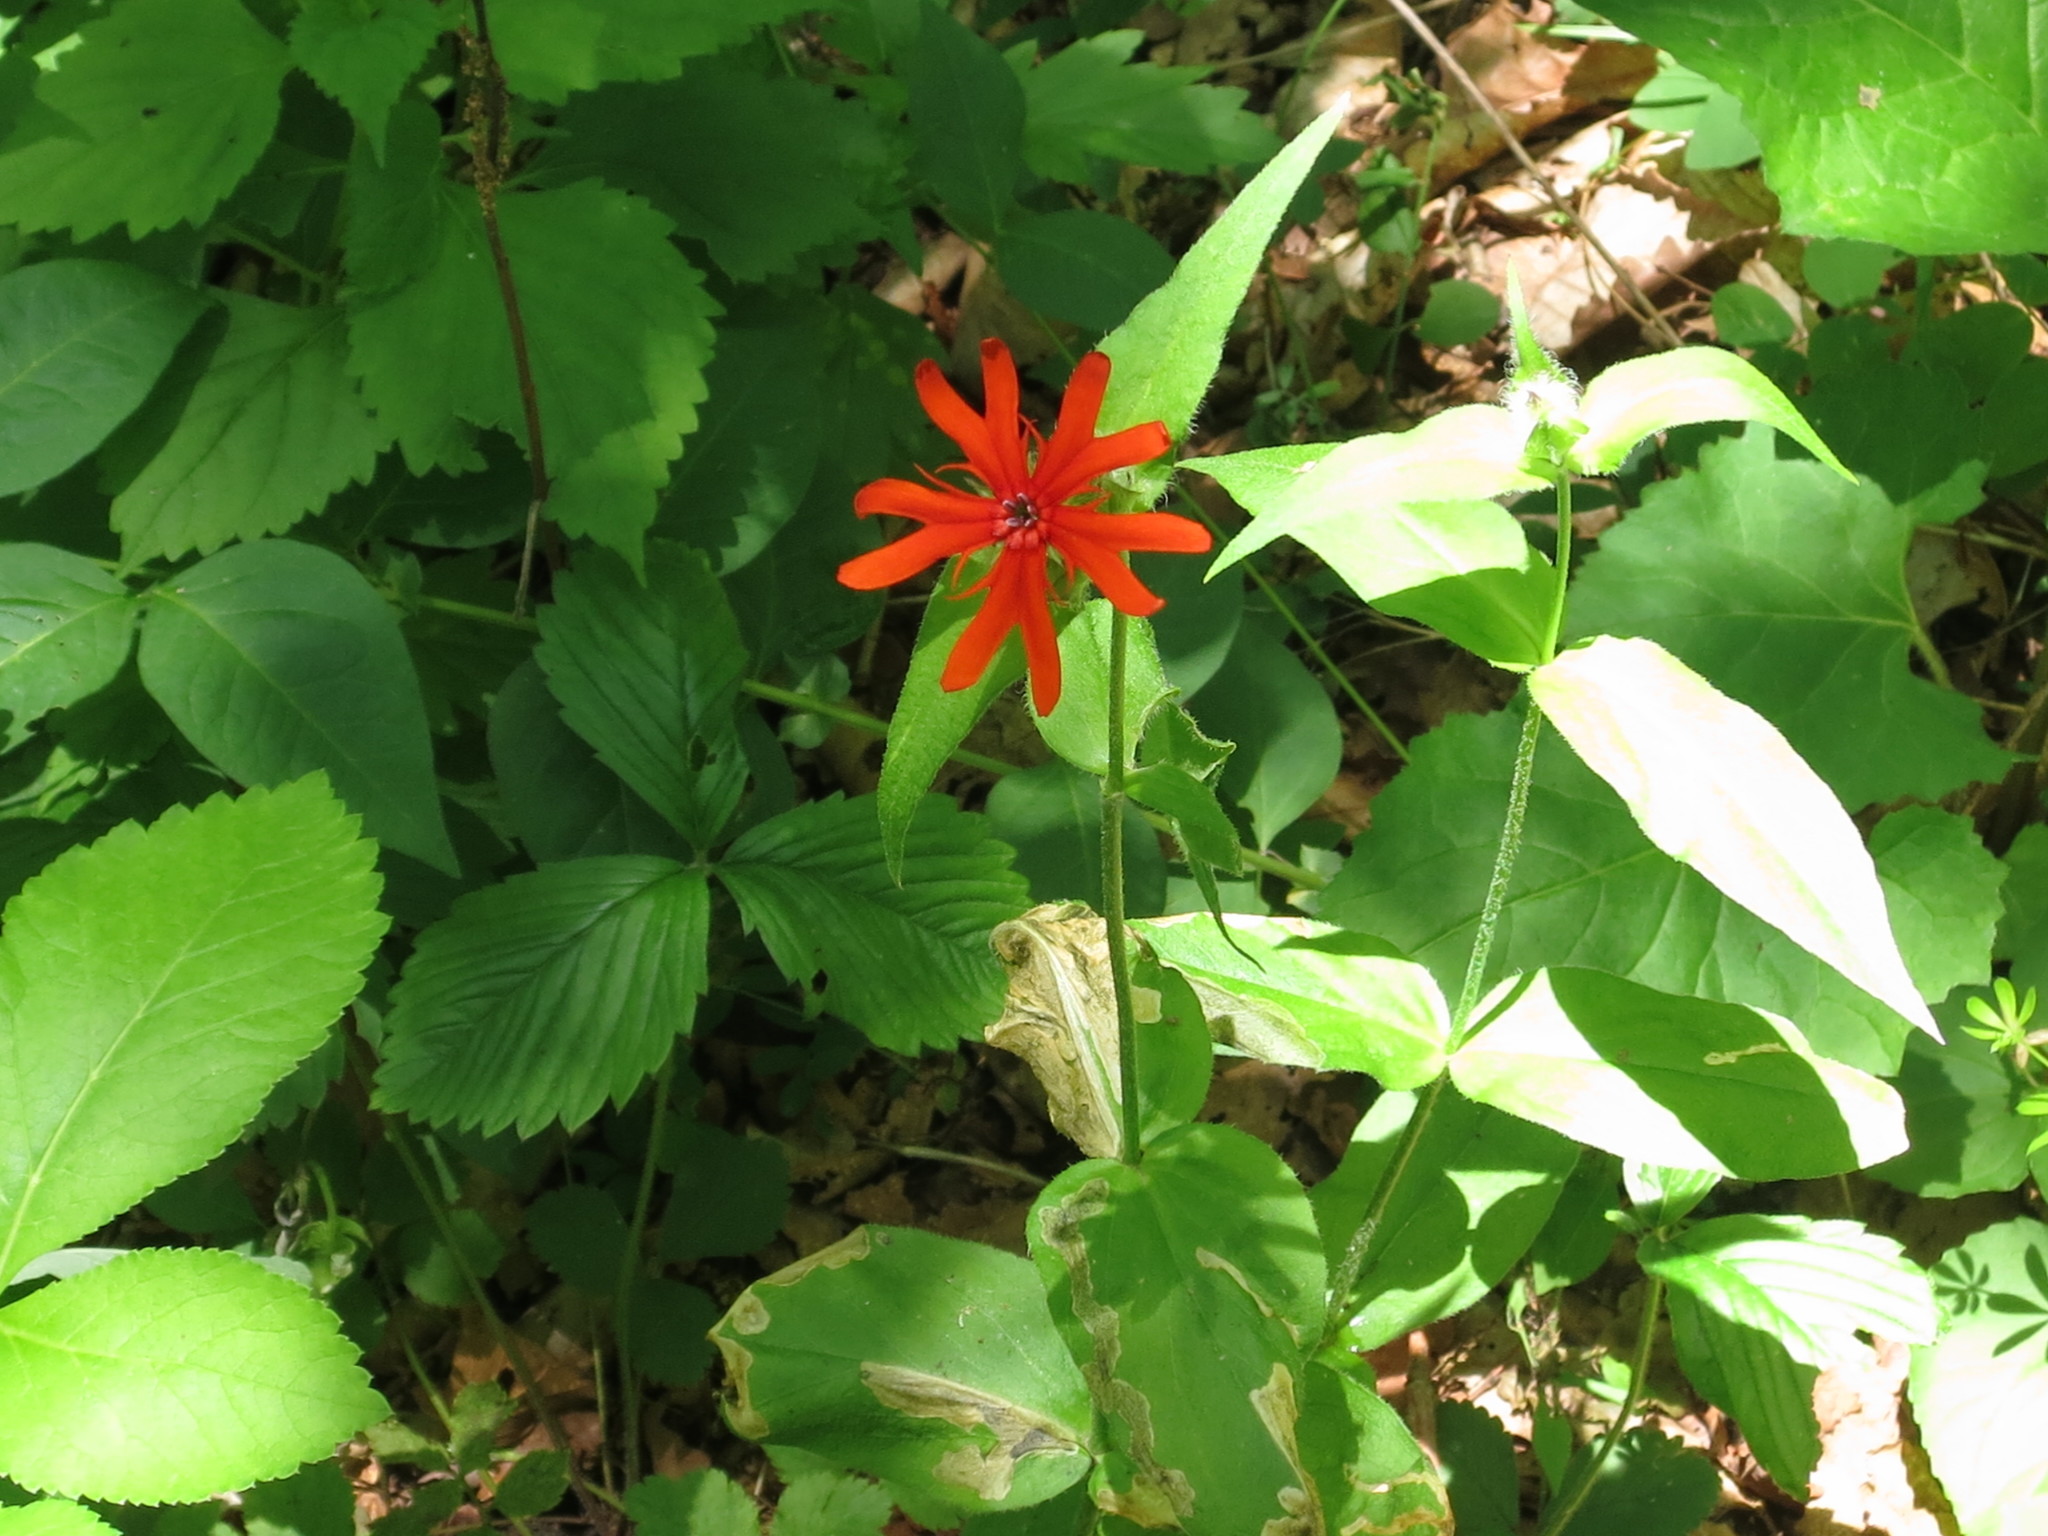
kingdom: Plantae
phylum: Tracheophyta
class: Magnoliopsida
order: Caryophyllales
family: Caryophyllaceae
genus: Silene
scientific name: Silene banksia
